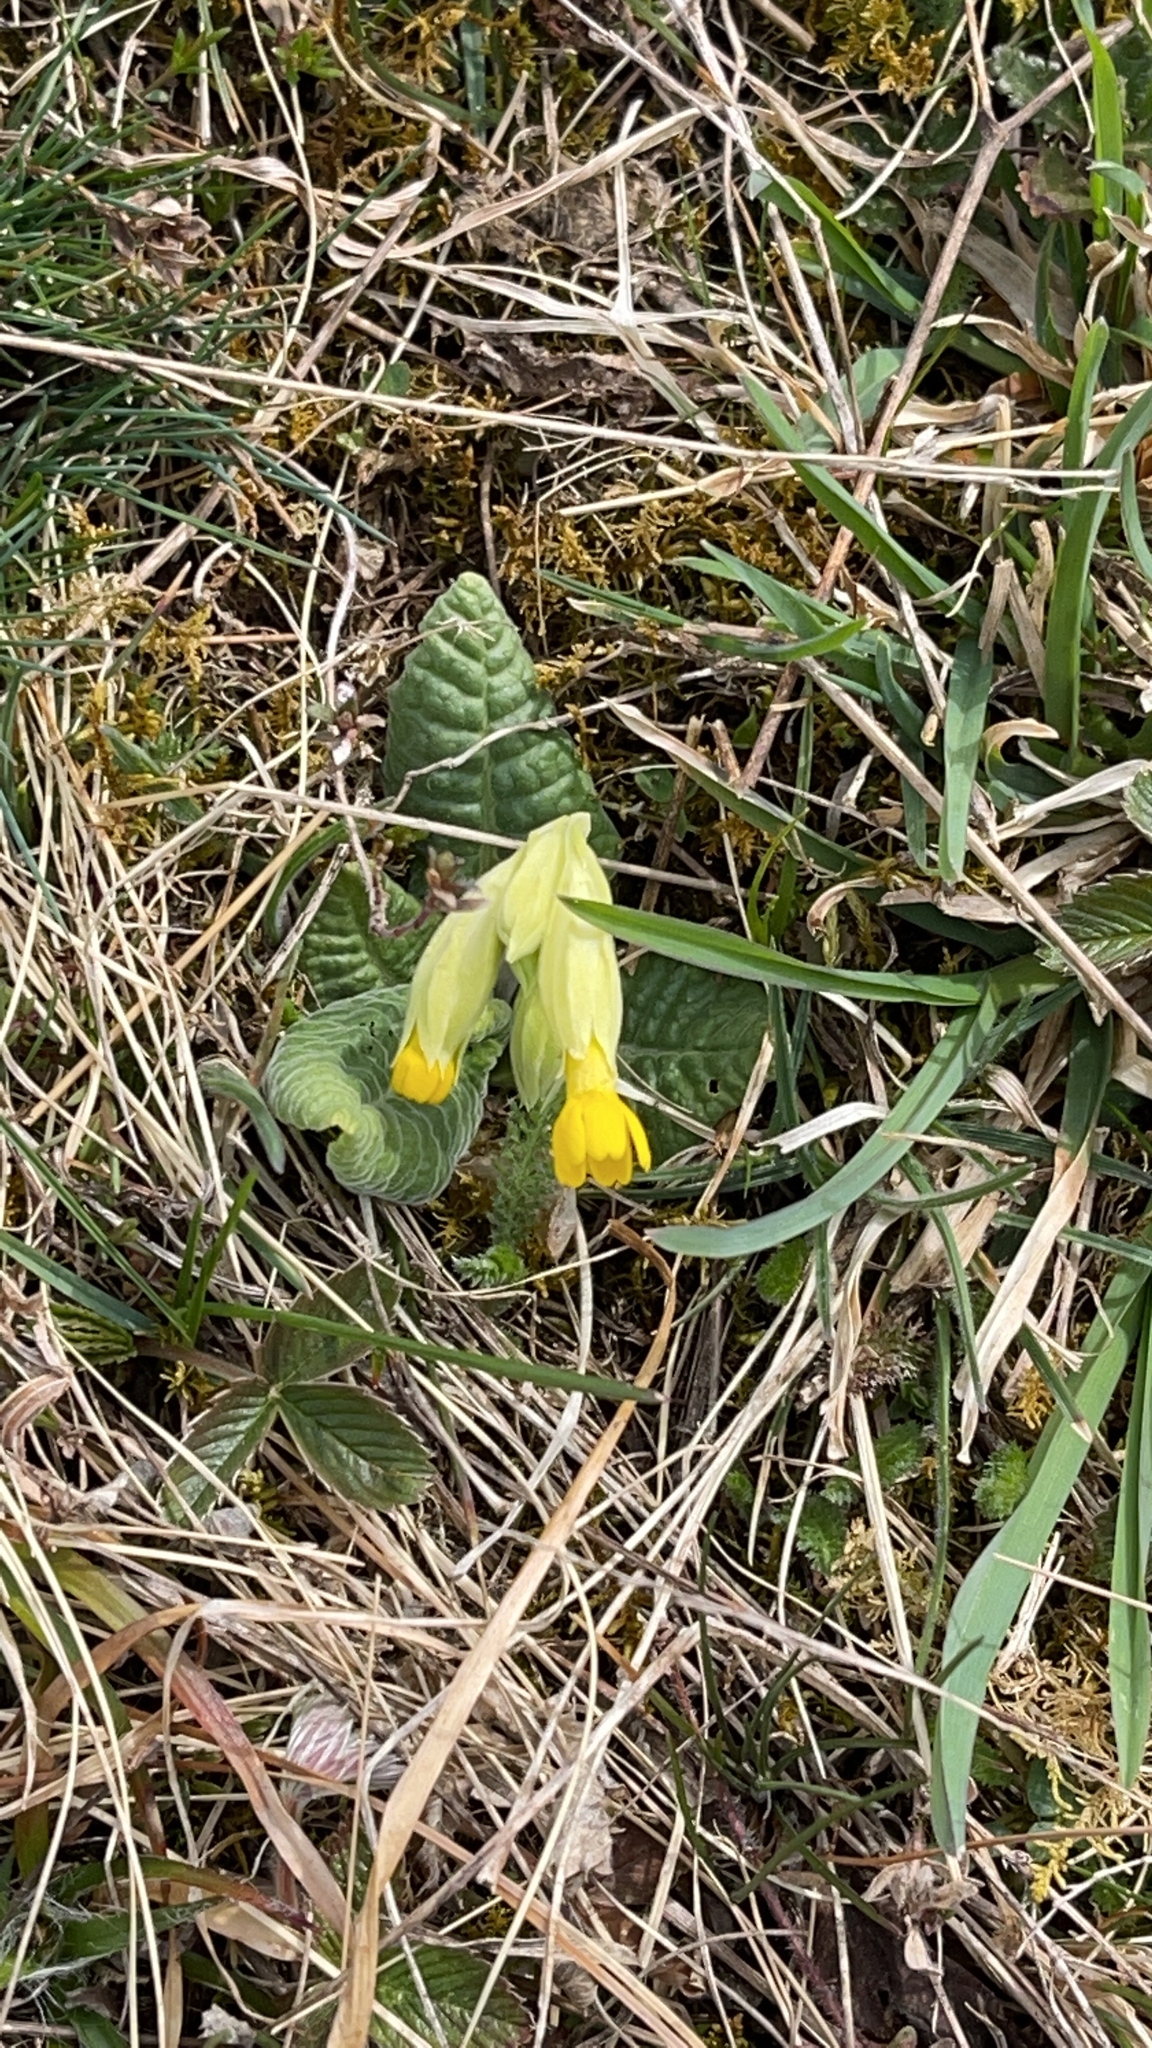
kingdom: Plantae
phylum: Tracheophyta
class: Magnoliopsida
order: Ericales
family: Primulaceae
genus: Primula
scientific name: Primula veris
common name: Cowslip
